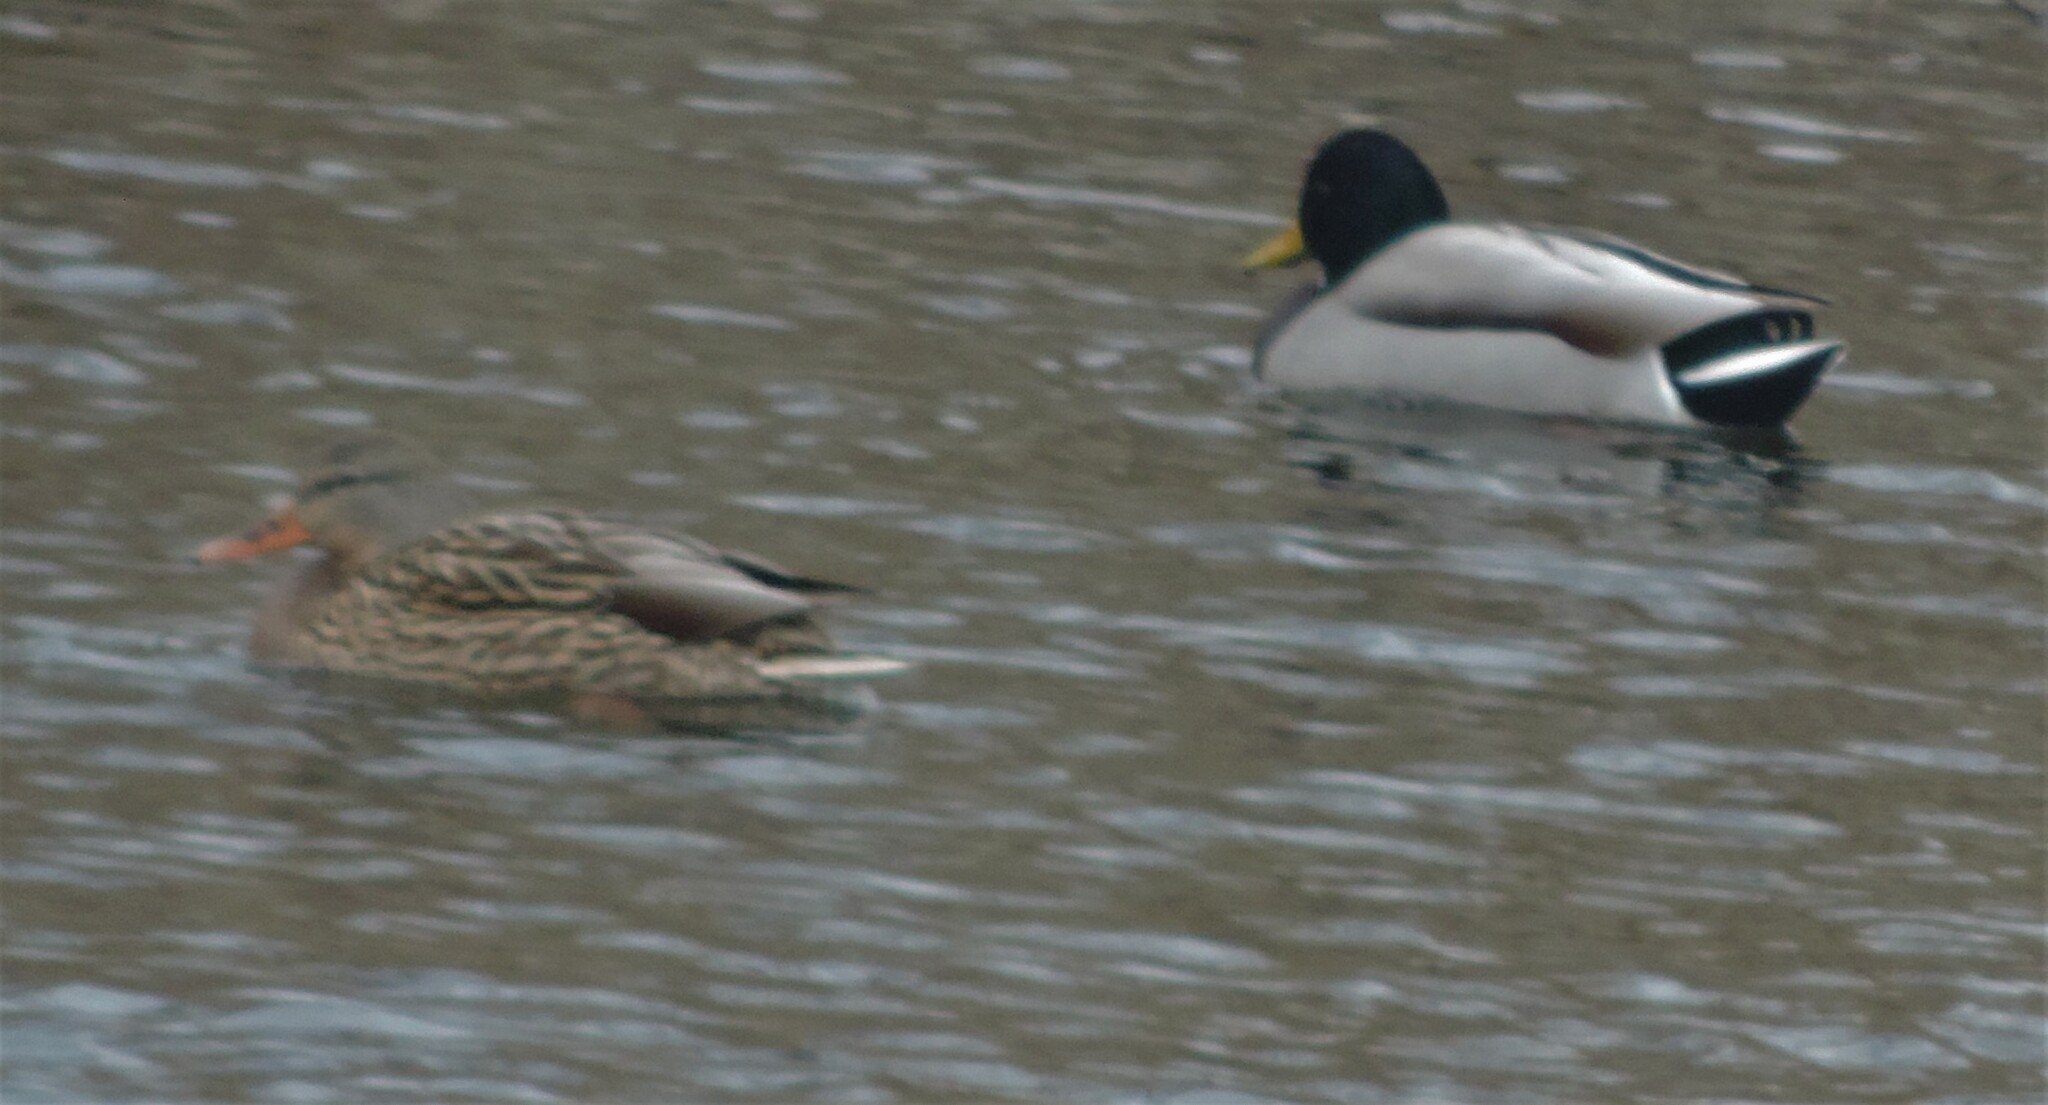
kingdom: Animalia
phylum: Chordata
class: Aves
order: Anseriformes
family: Anatidae
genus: Anas
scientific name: Anas platyrhynchos
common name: Mallard
